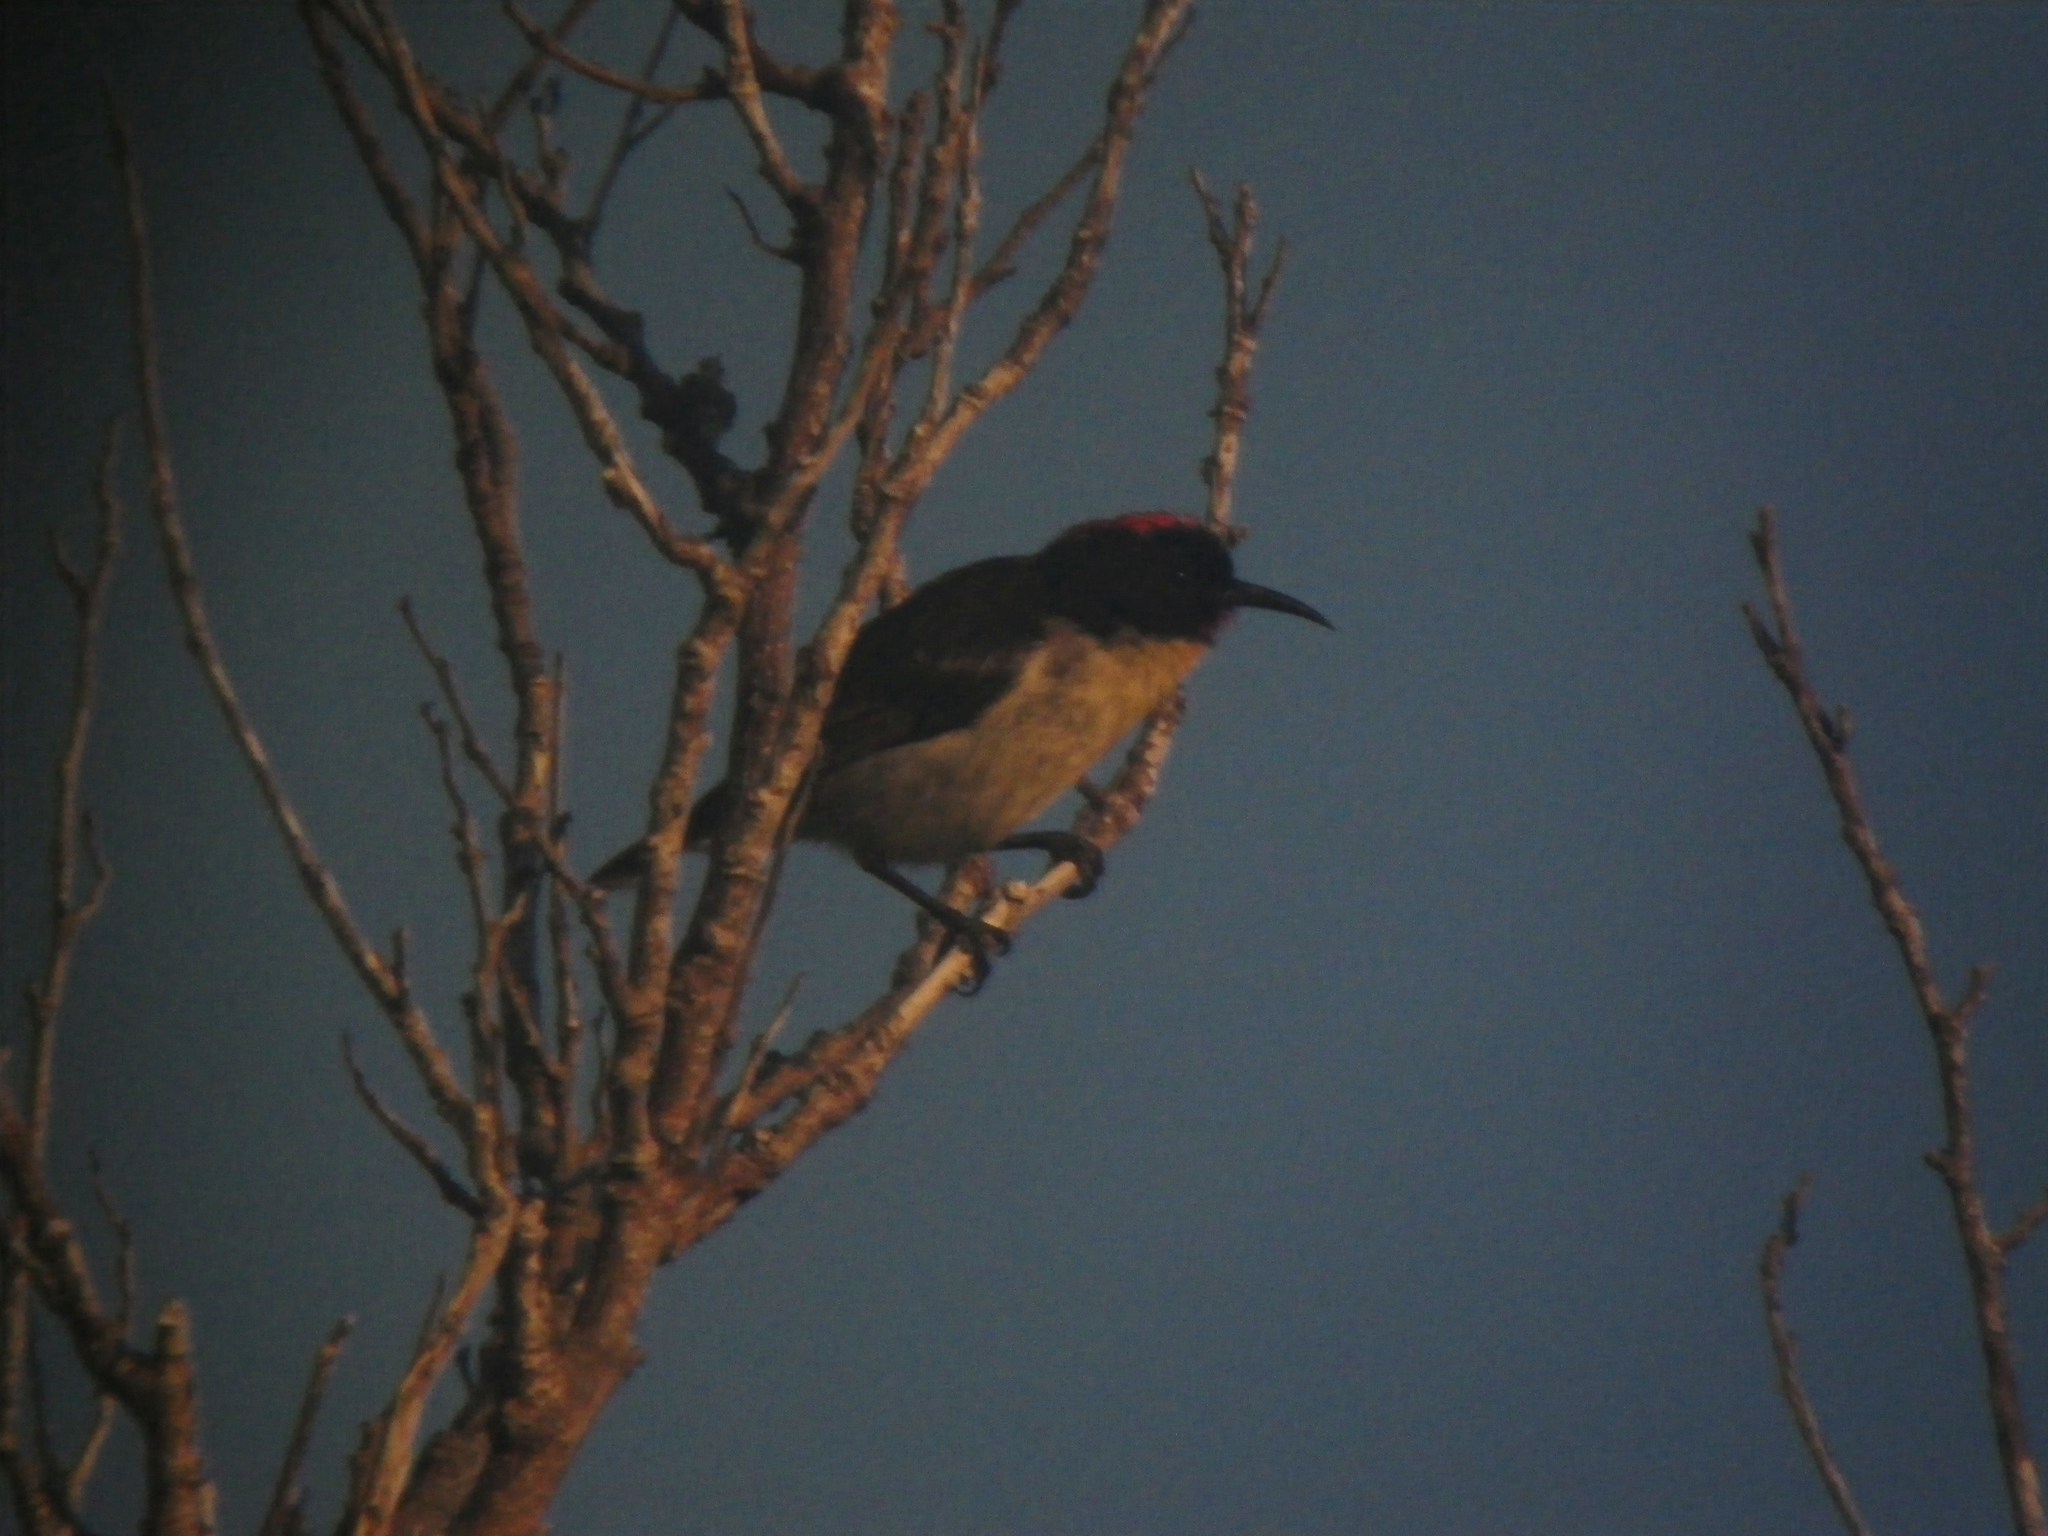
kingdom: Animalia
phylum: Chordata
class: Aves
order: Passeriformes
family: Meliphagidae
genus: Myzomela
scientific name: Myzomela jugularis
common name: Sulphur-breasted myzomela
